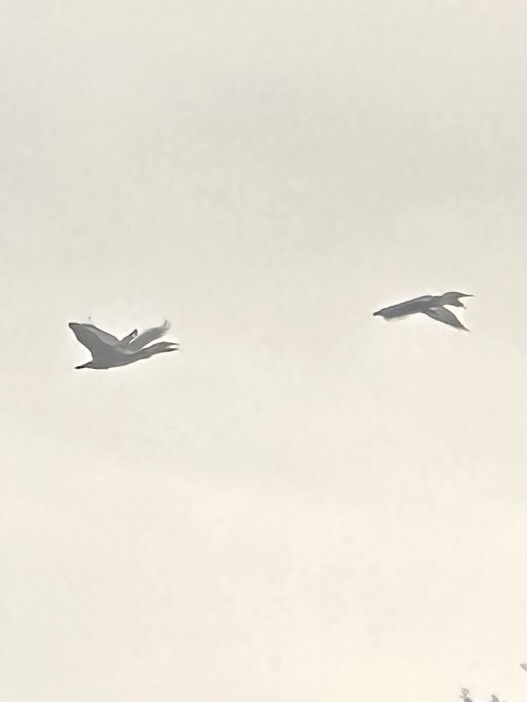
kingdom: Animalia
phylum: Chordata
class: Aves
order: Suliformes
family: Phalacrocoracidae
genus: Phalacrocorax
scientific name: Phalacrocorax auritus
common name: Double-crested cormorant
